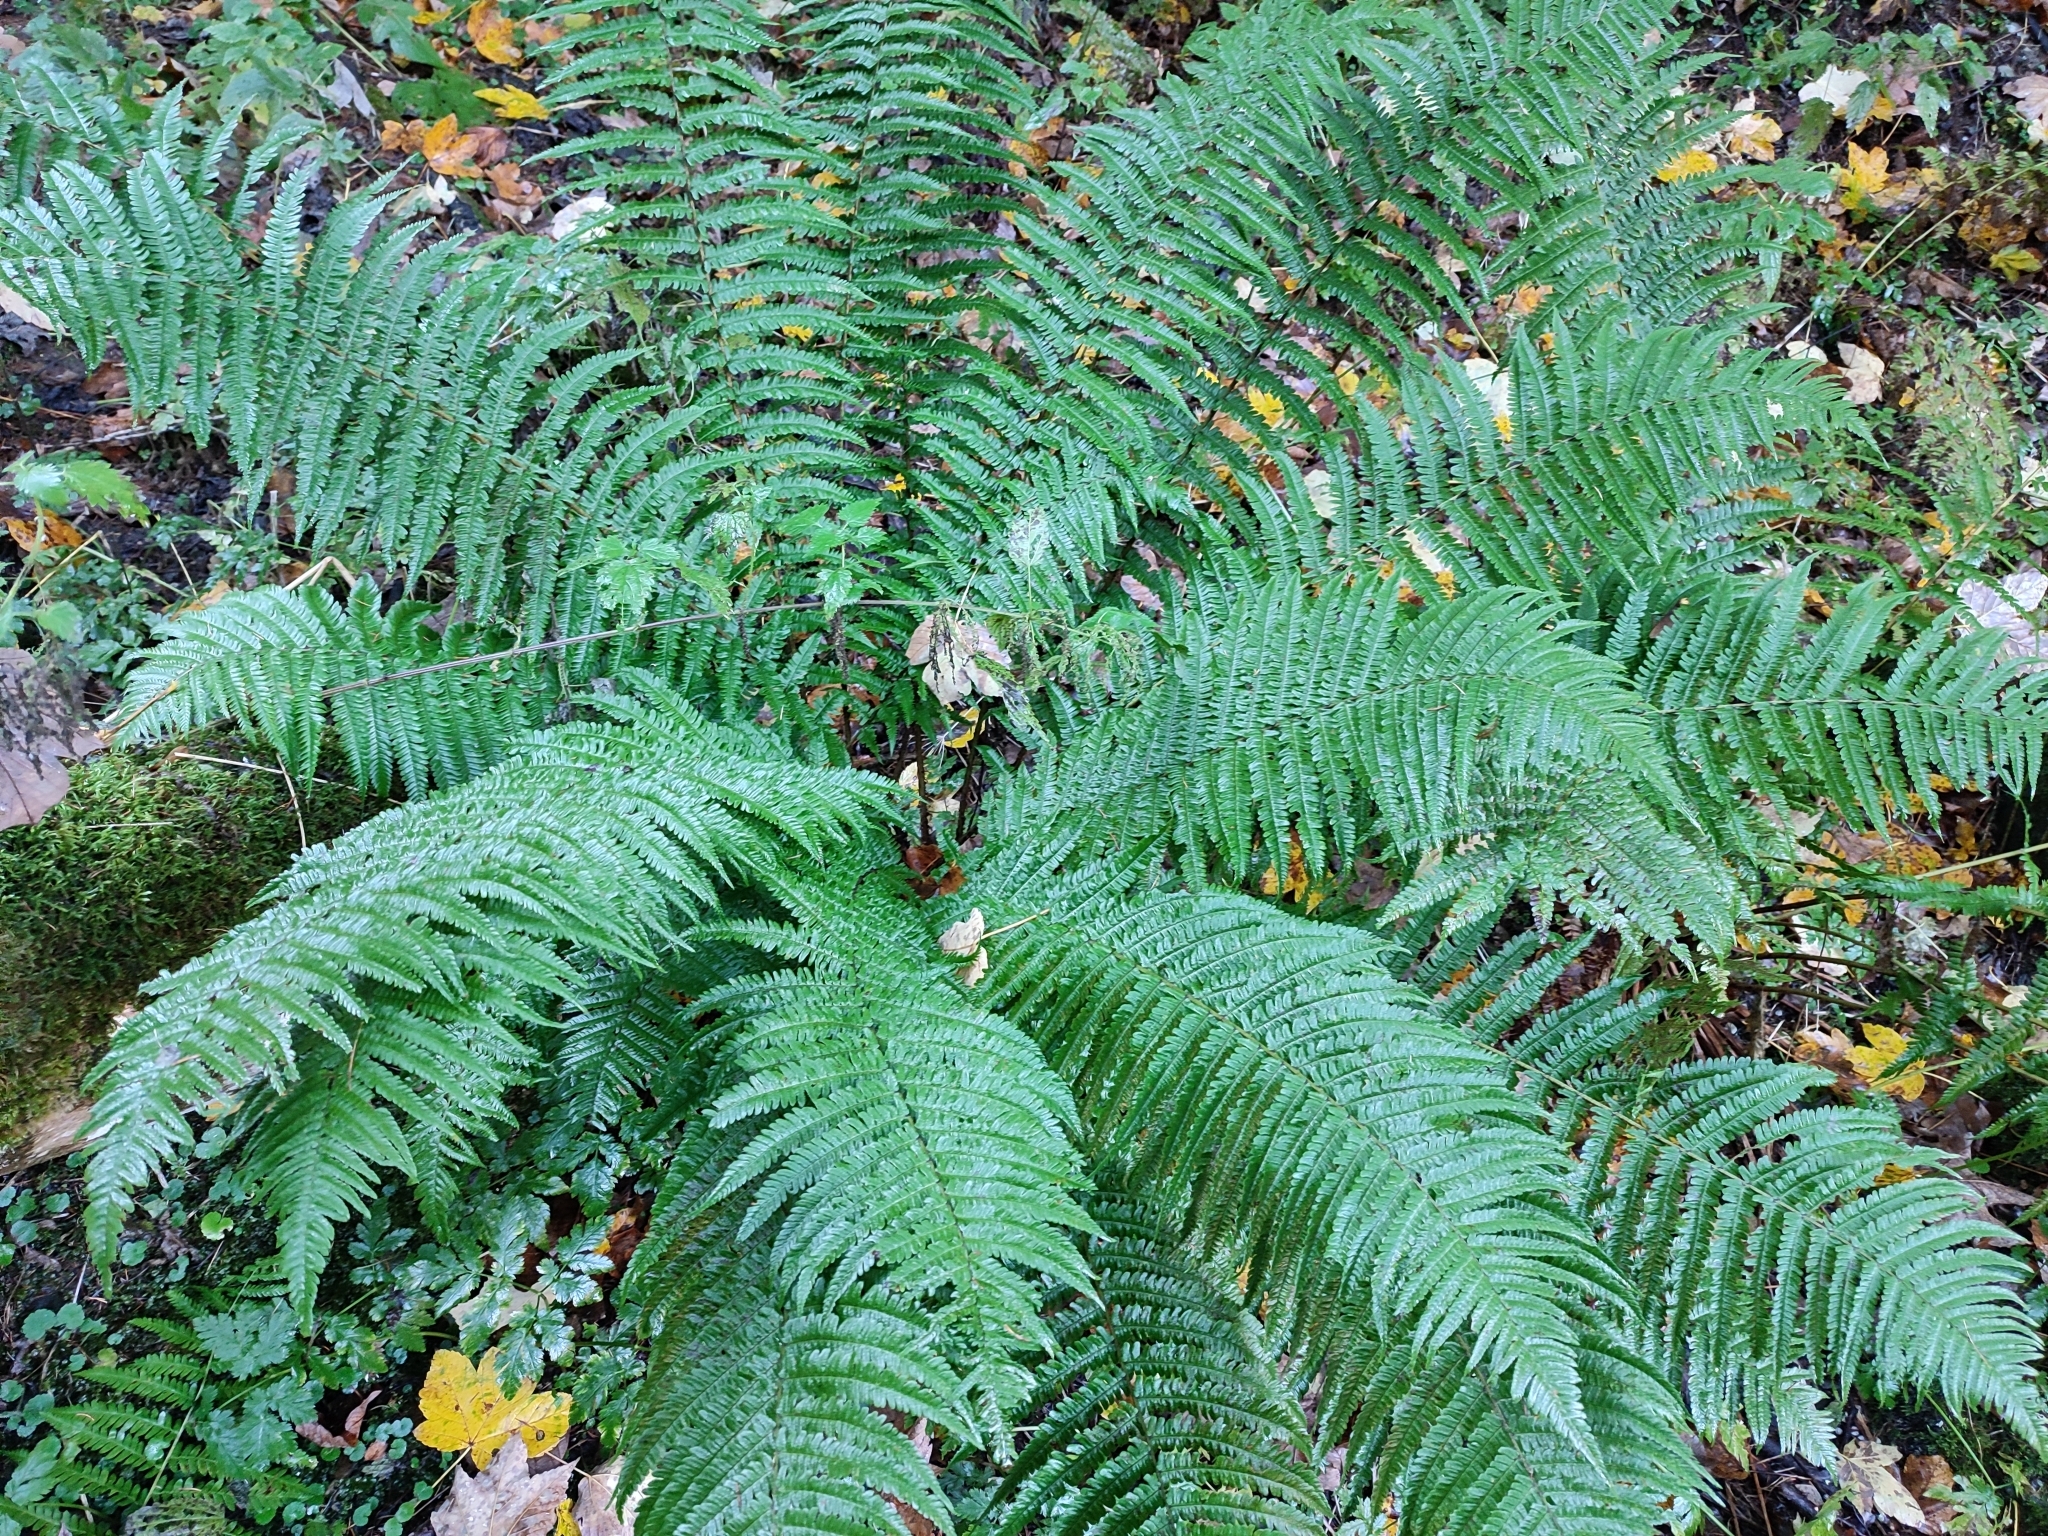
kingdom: Plantae
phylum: Tracheophyta
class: Polypodiopsida
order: Polypodiales
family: Dryopteridaceae
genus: Dryopteris
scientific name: Dryopteris borreri
